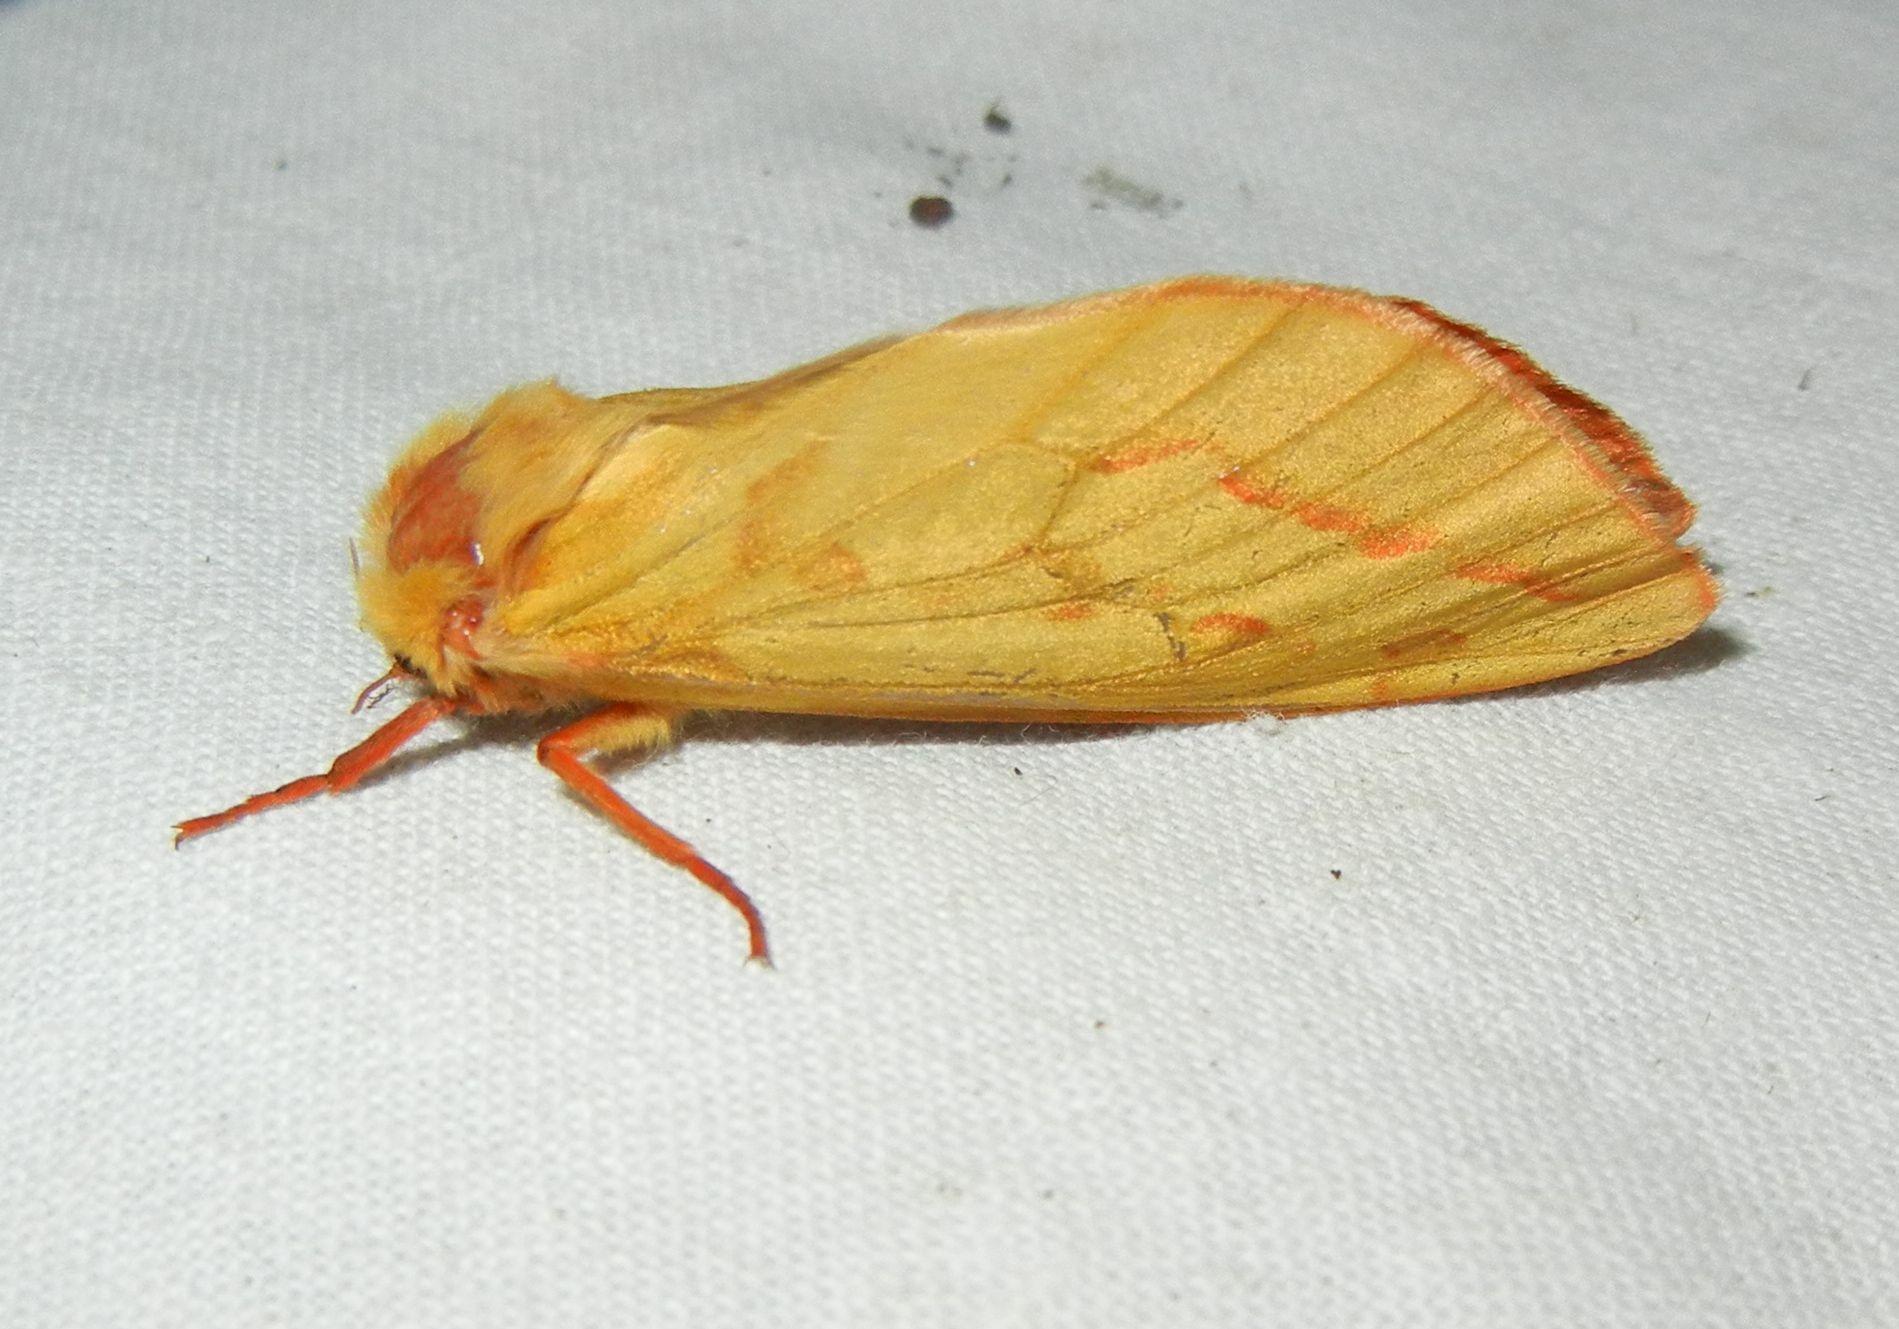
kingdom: Animalia
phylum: Arthropoda
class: Insecta
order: Lepidoptera
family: Hepialidae
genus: Hepialus
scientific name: Hepialus humuli
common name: Ghost moth
